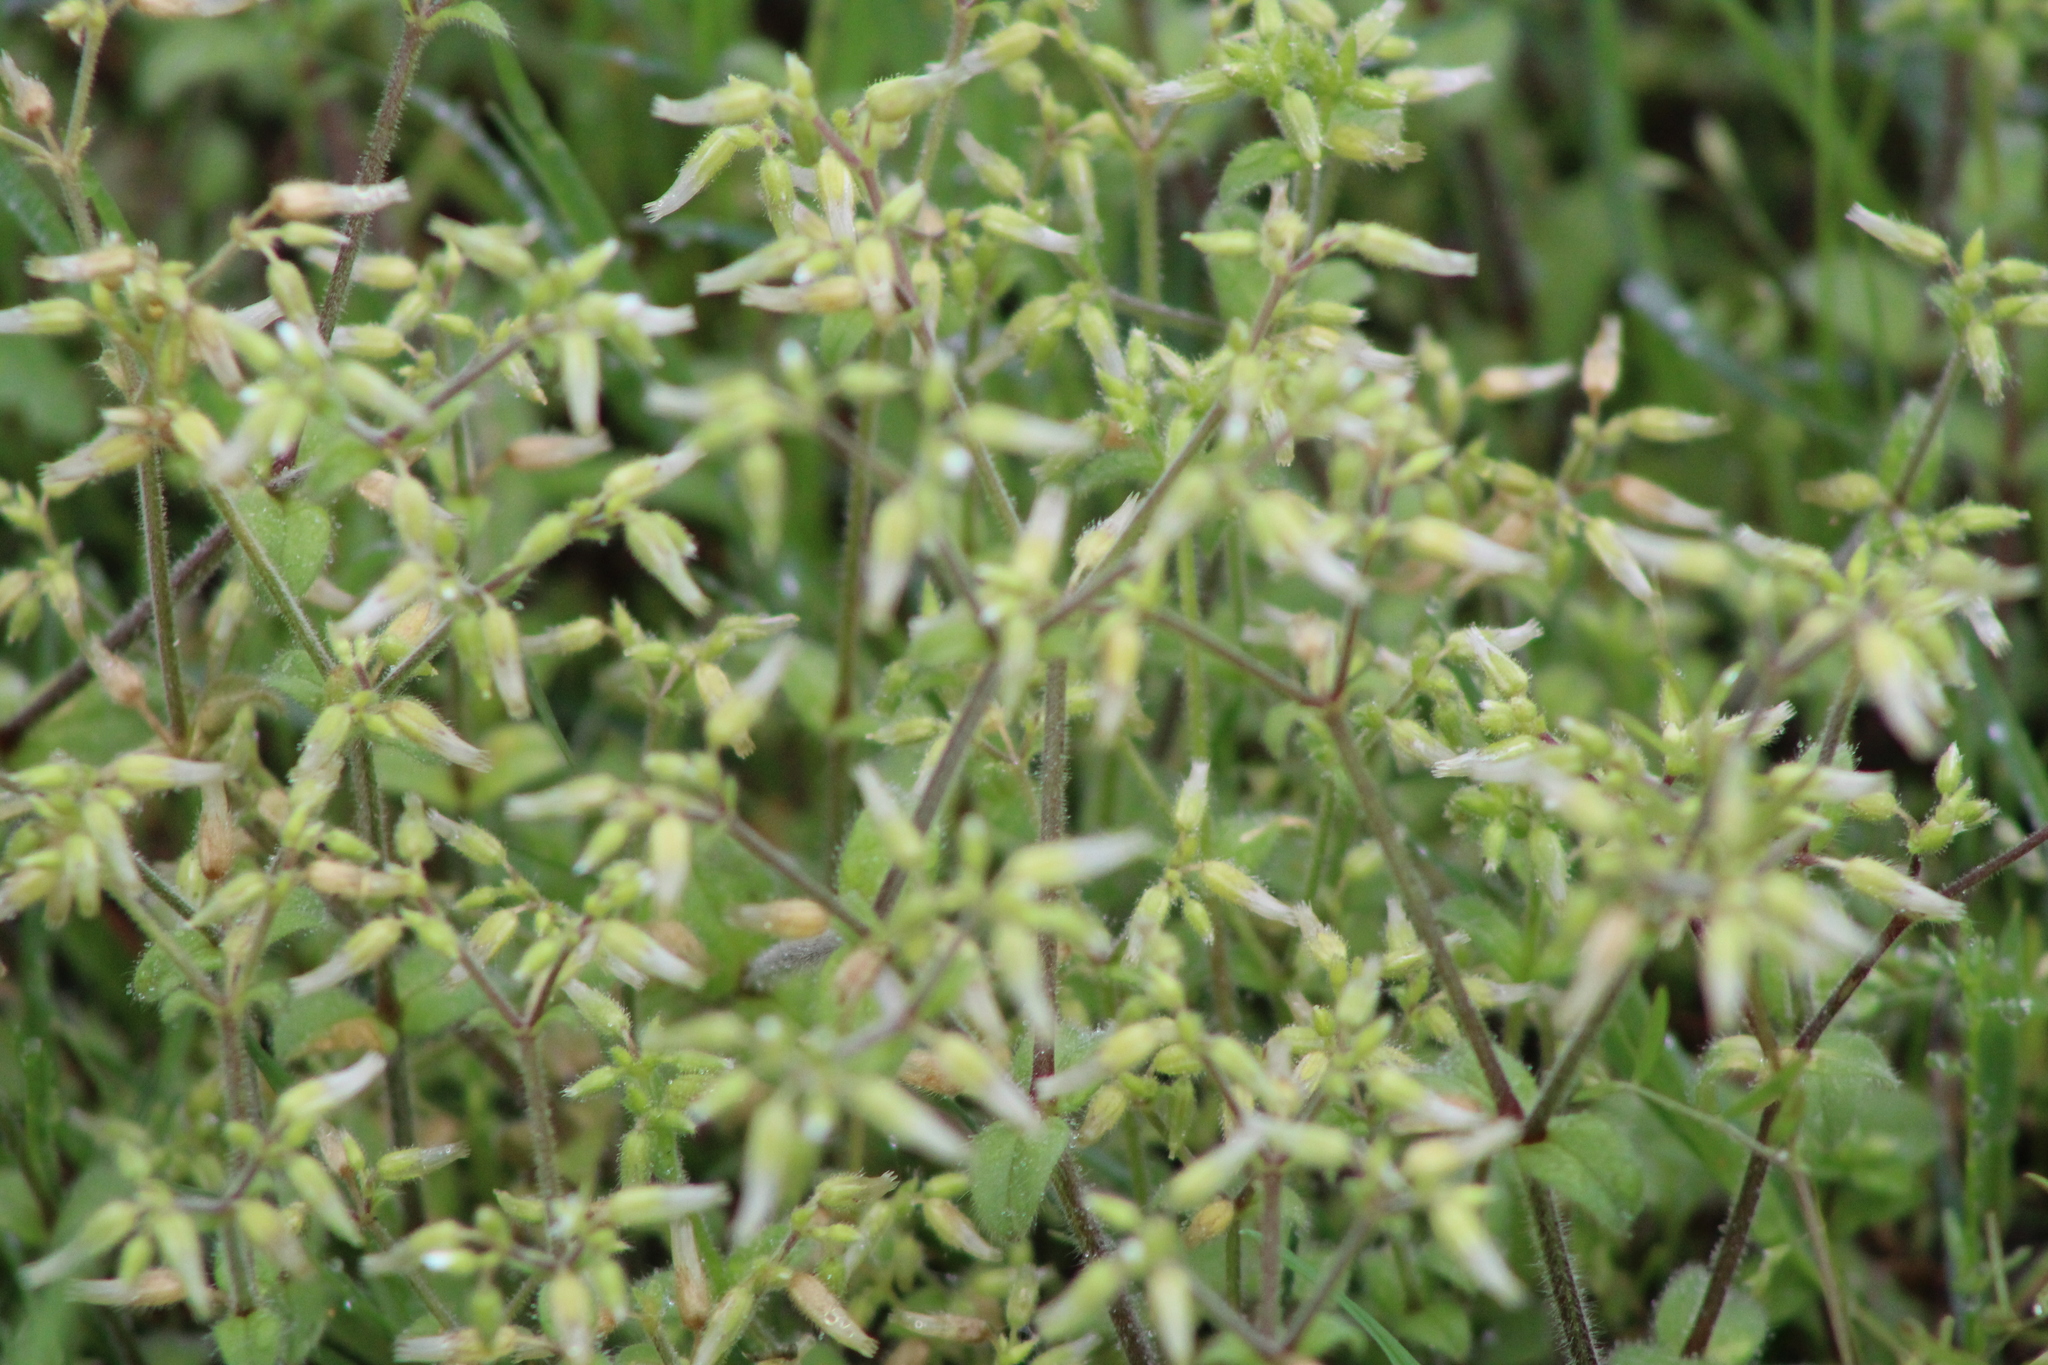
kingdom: Plantae
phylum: Tracheophyta
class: Magnoliopsida
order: Caryophyllales
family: Caryophyllaceae
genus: Cerastium
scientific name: Cerastium glomeratum
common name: Sticky chickweed
